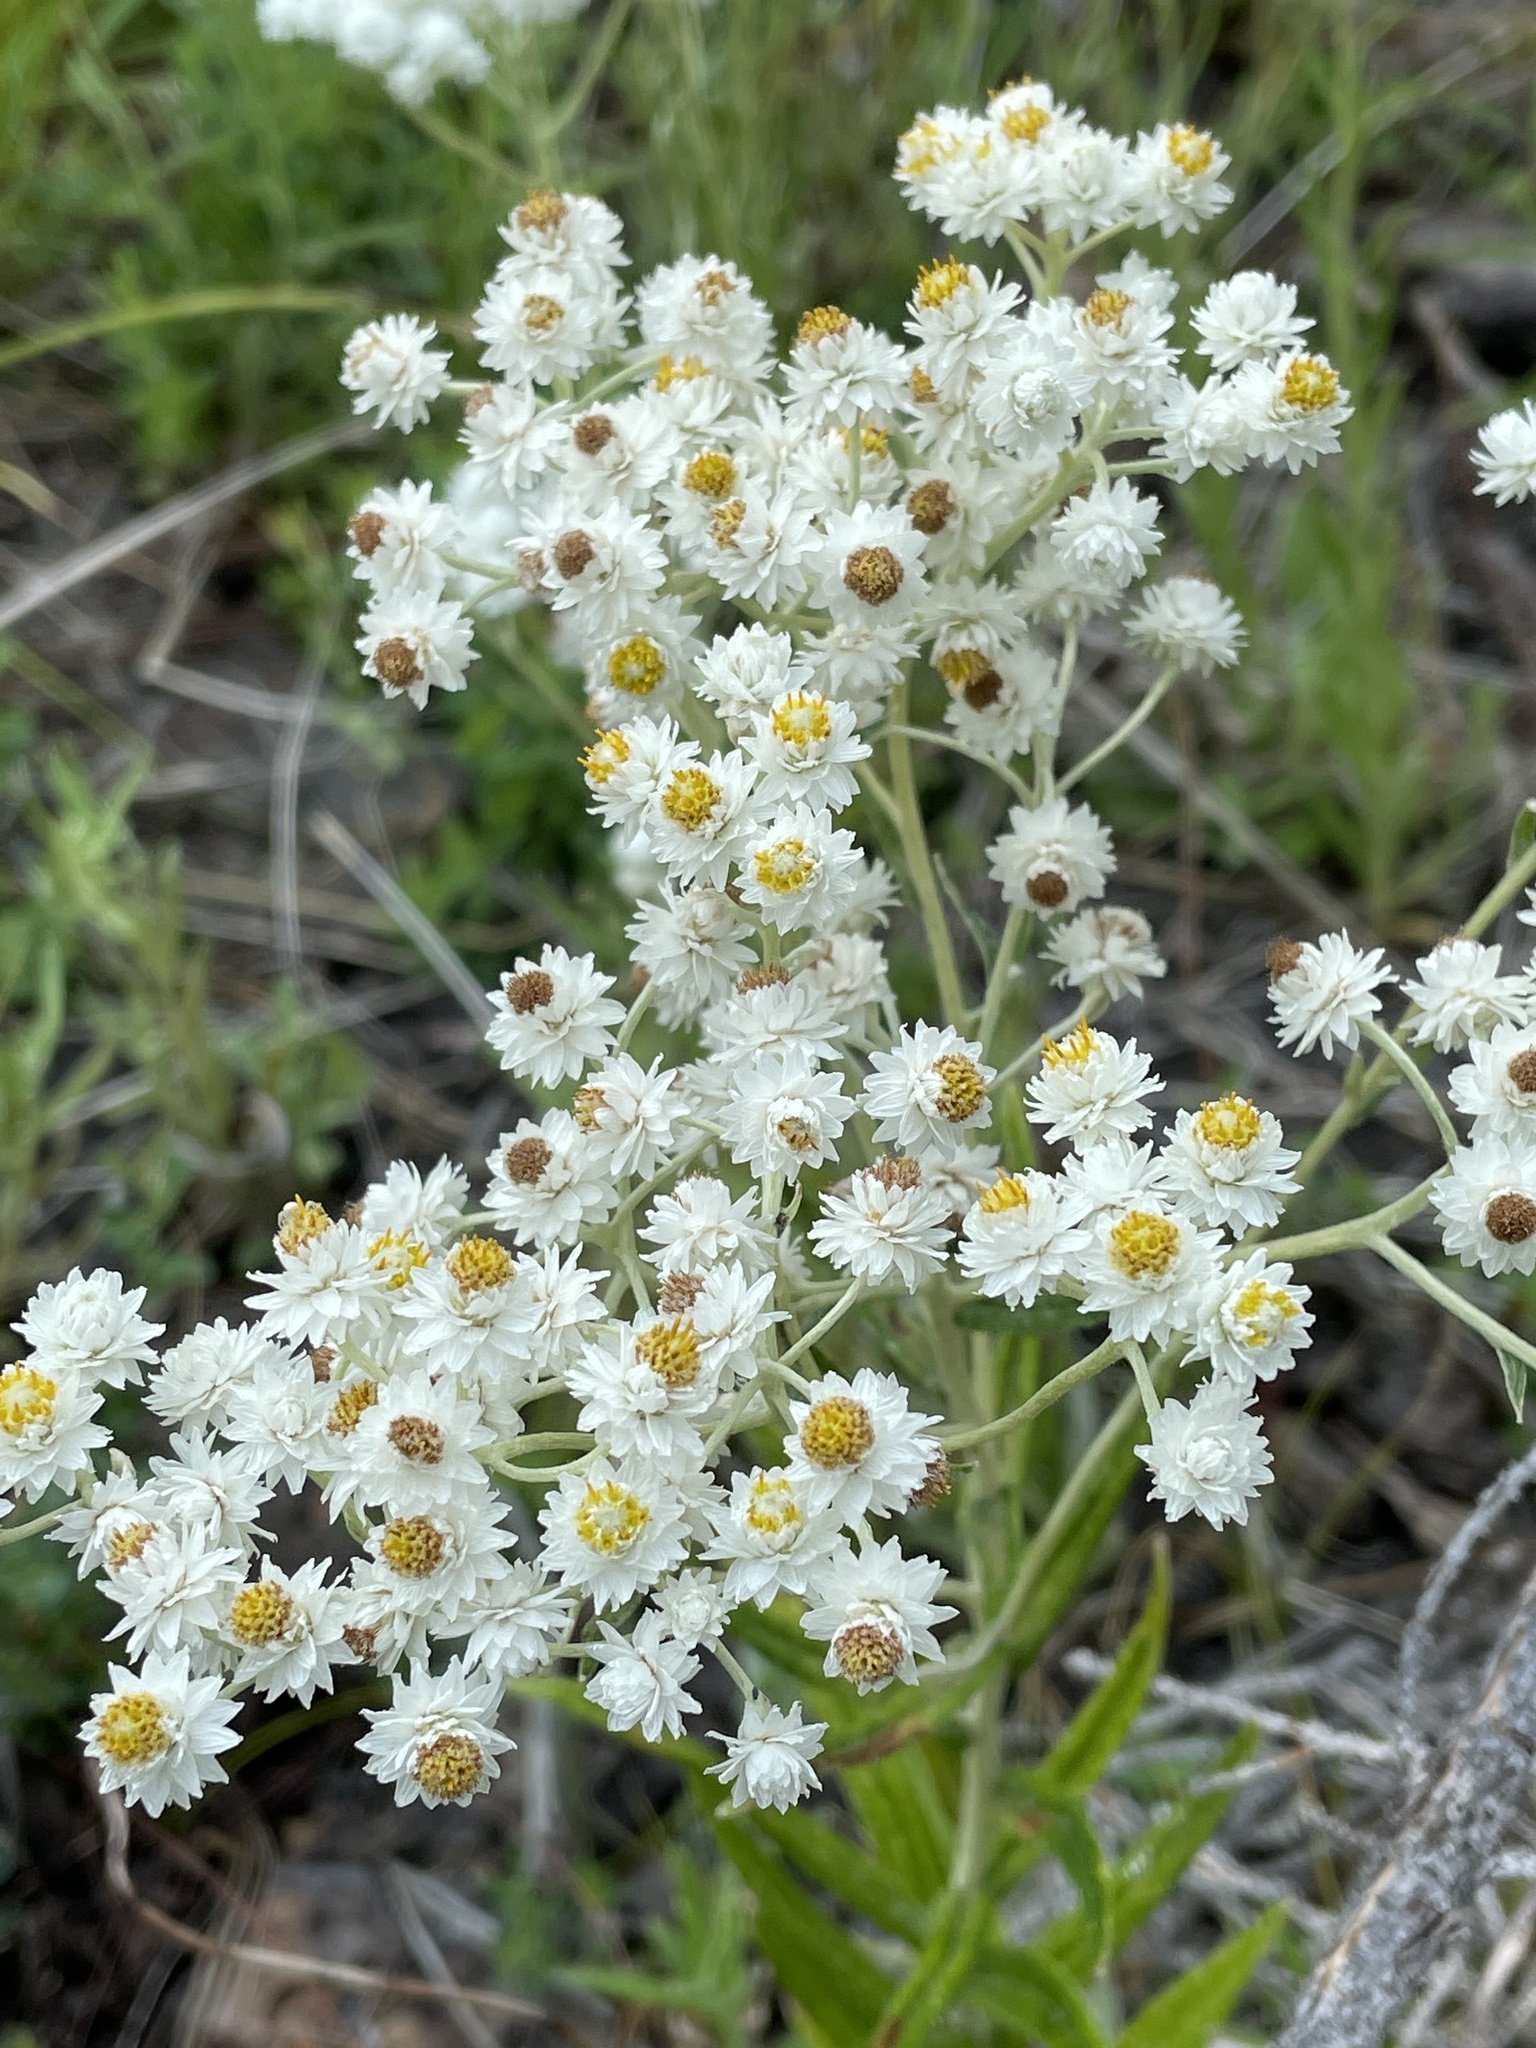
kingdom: Plantae
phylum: Tracheophyta
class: Magnoliopsida
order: Asterales
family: Asteraceae
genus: Anaphalis
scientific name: Anaphalis margaritacea
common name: Pearly everlasting
